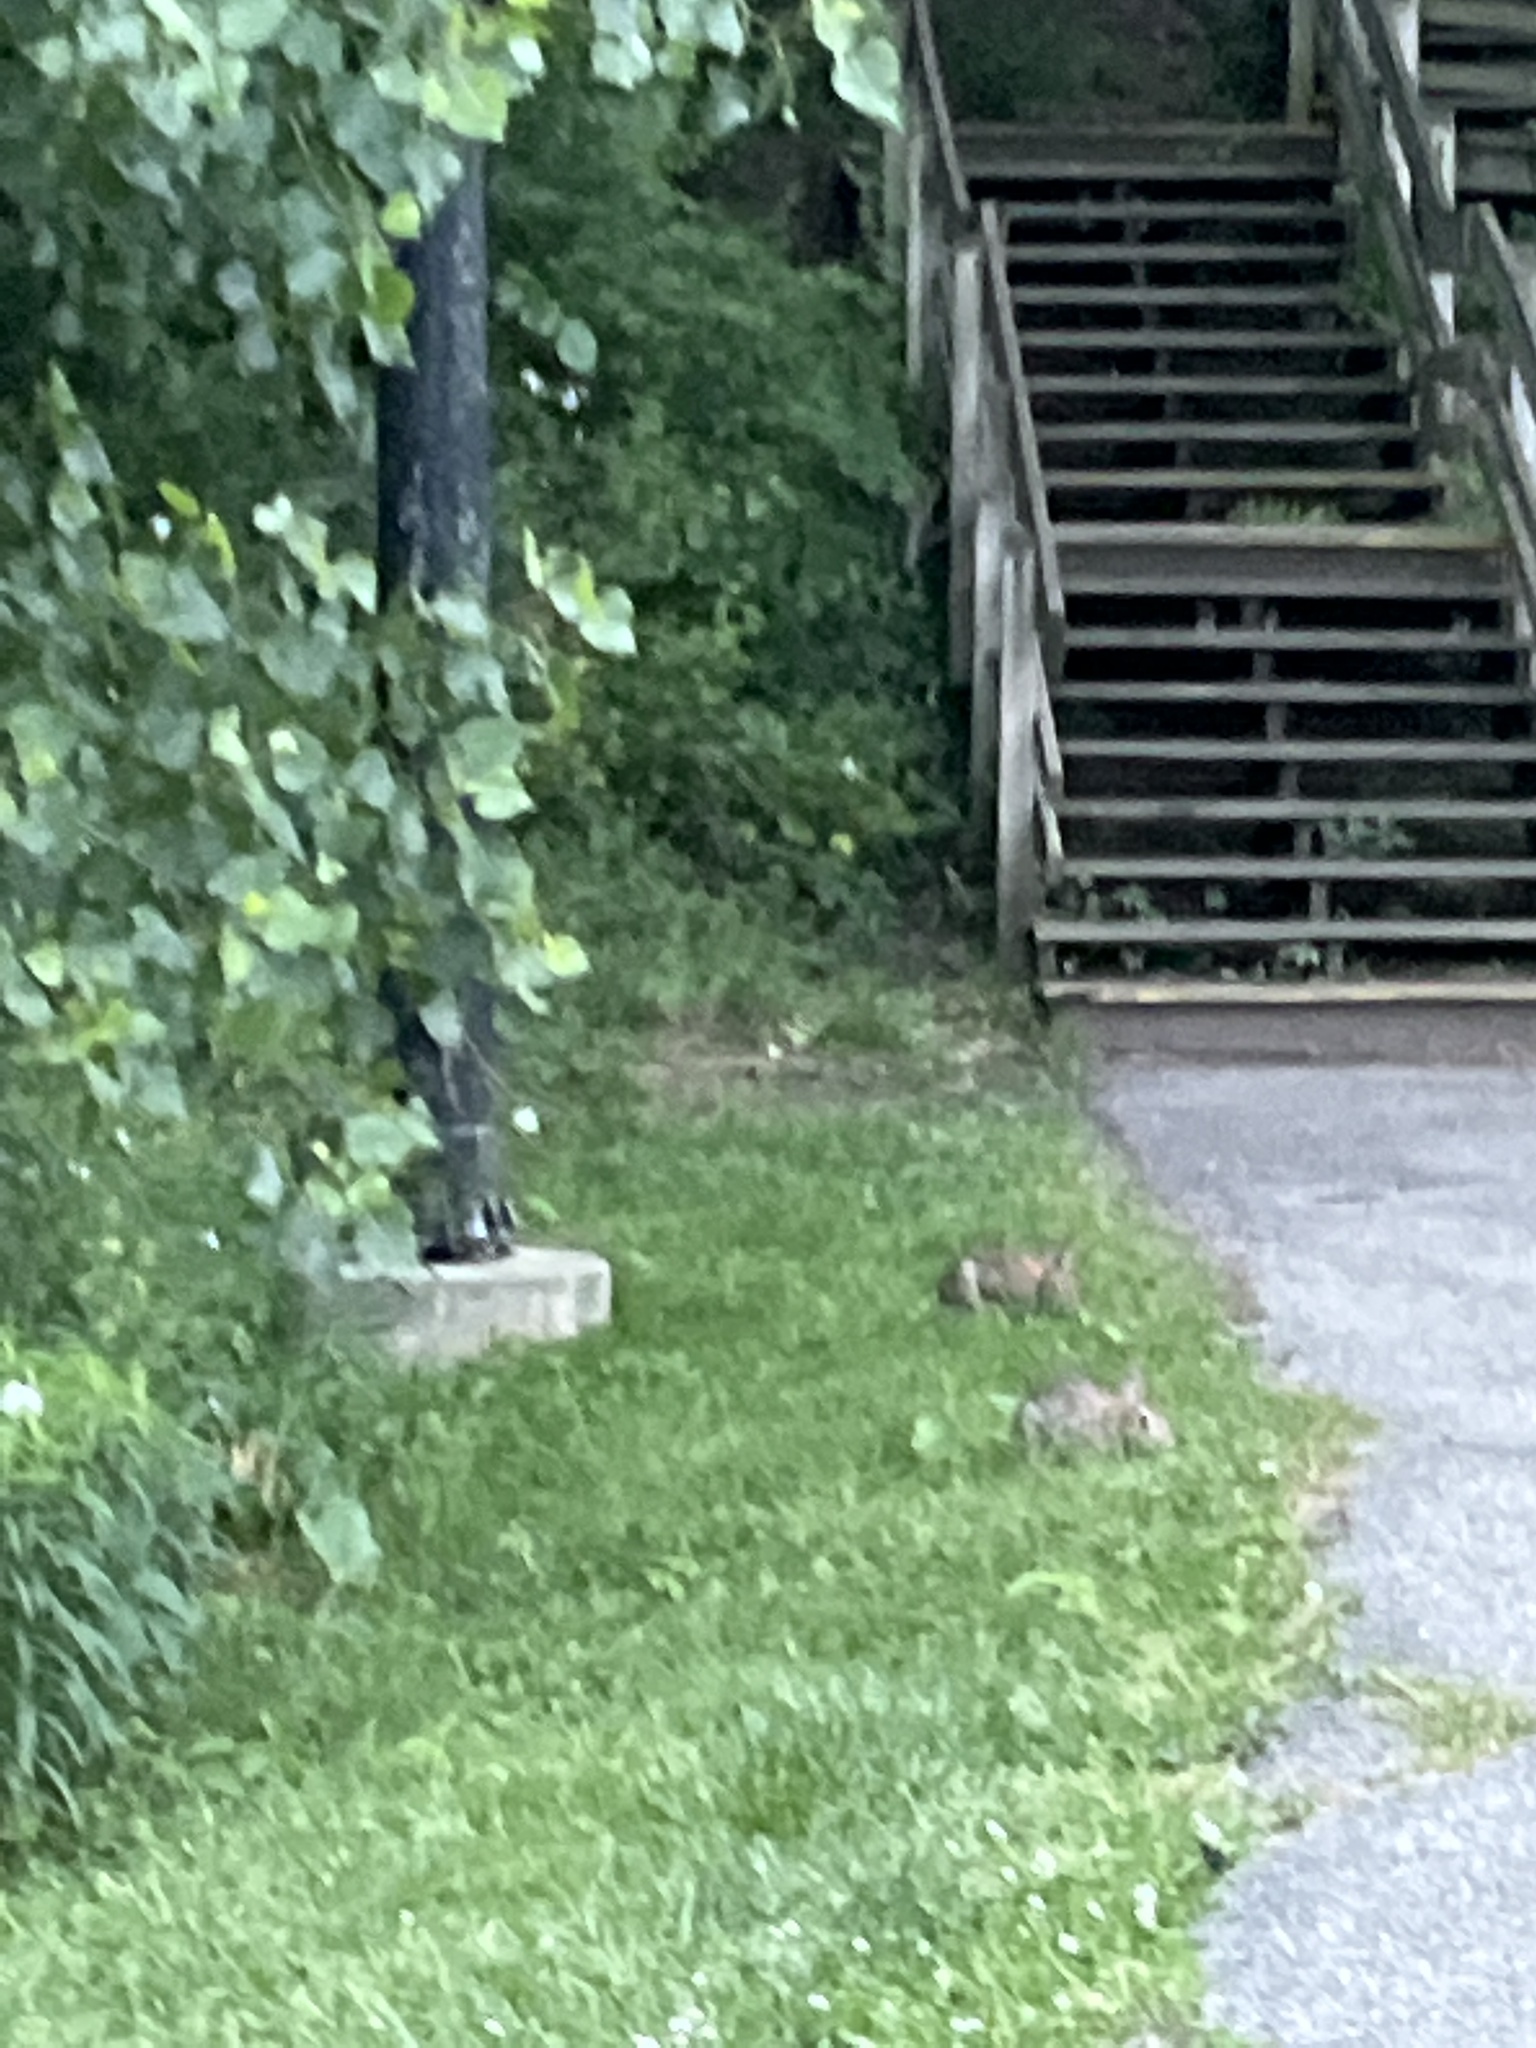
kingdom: Animalia
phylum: Chordata
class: Mammalia
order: Lagomorpha
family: Leporidae
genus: Sylvilagus
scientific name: Sylvilagus floridanus
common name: Eastern cottontail
